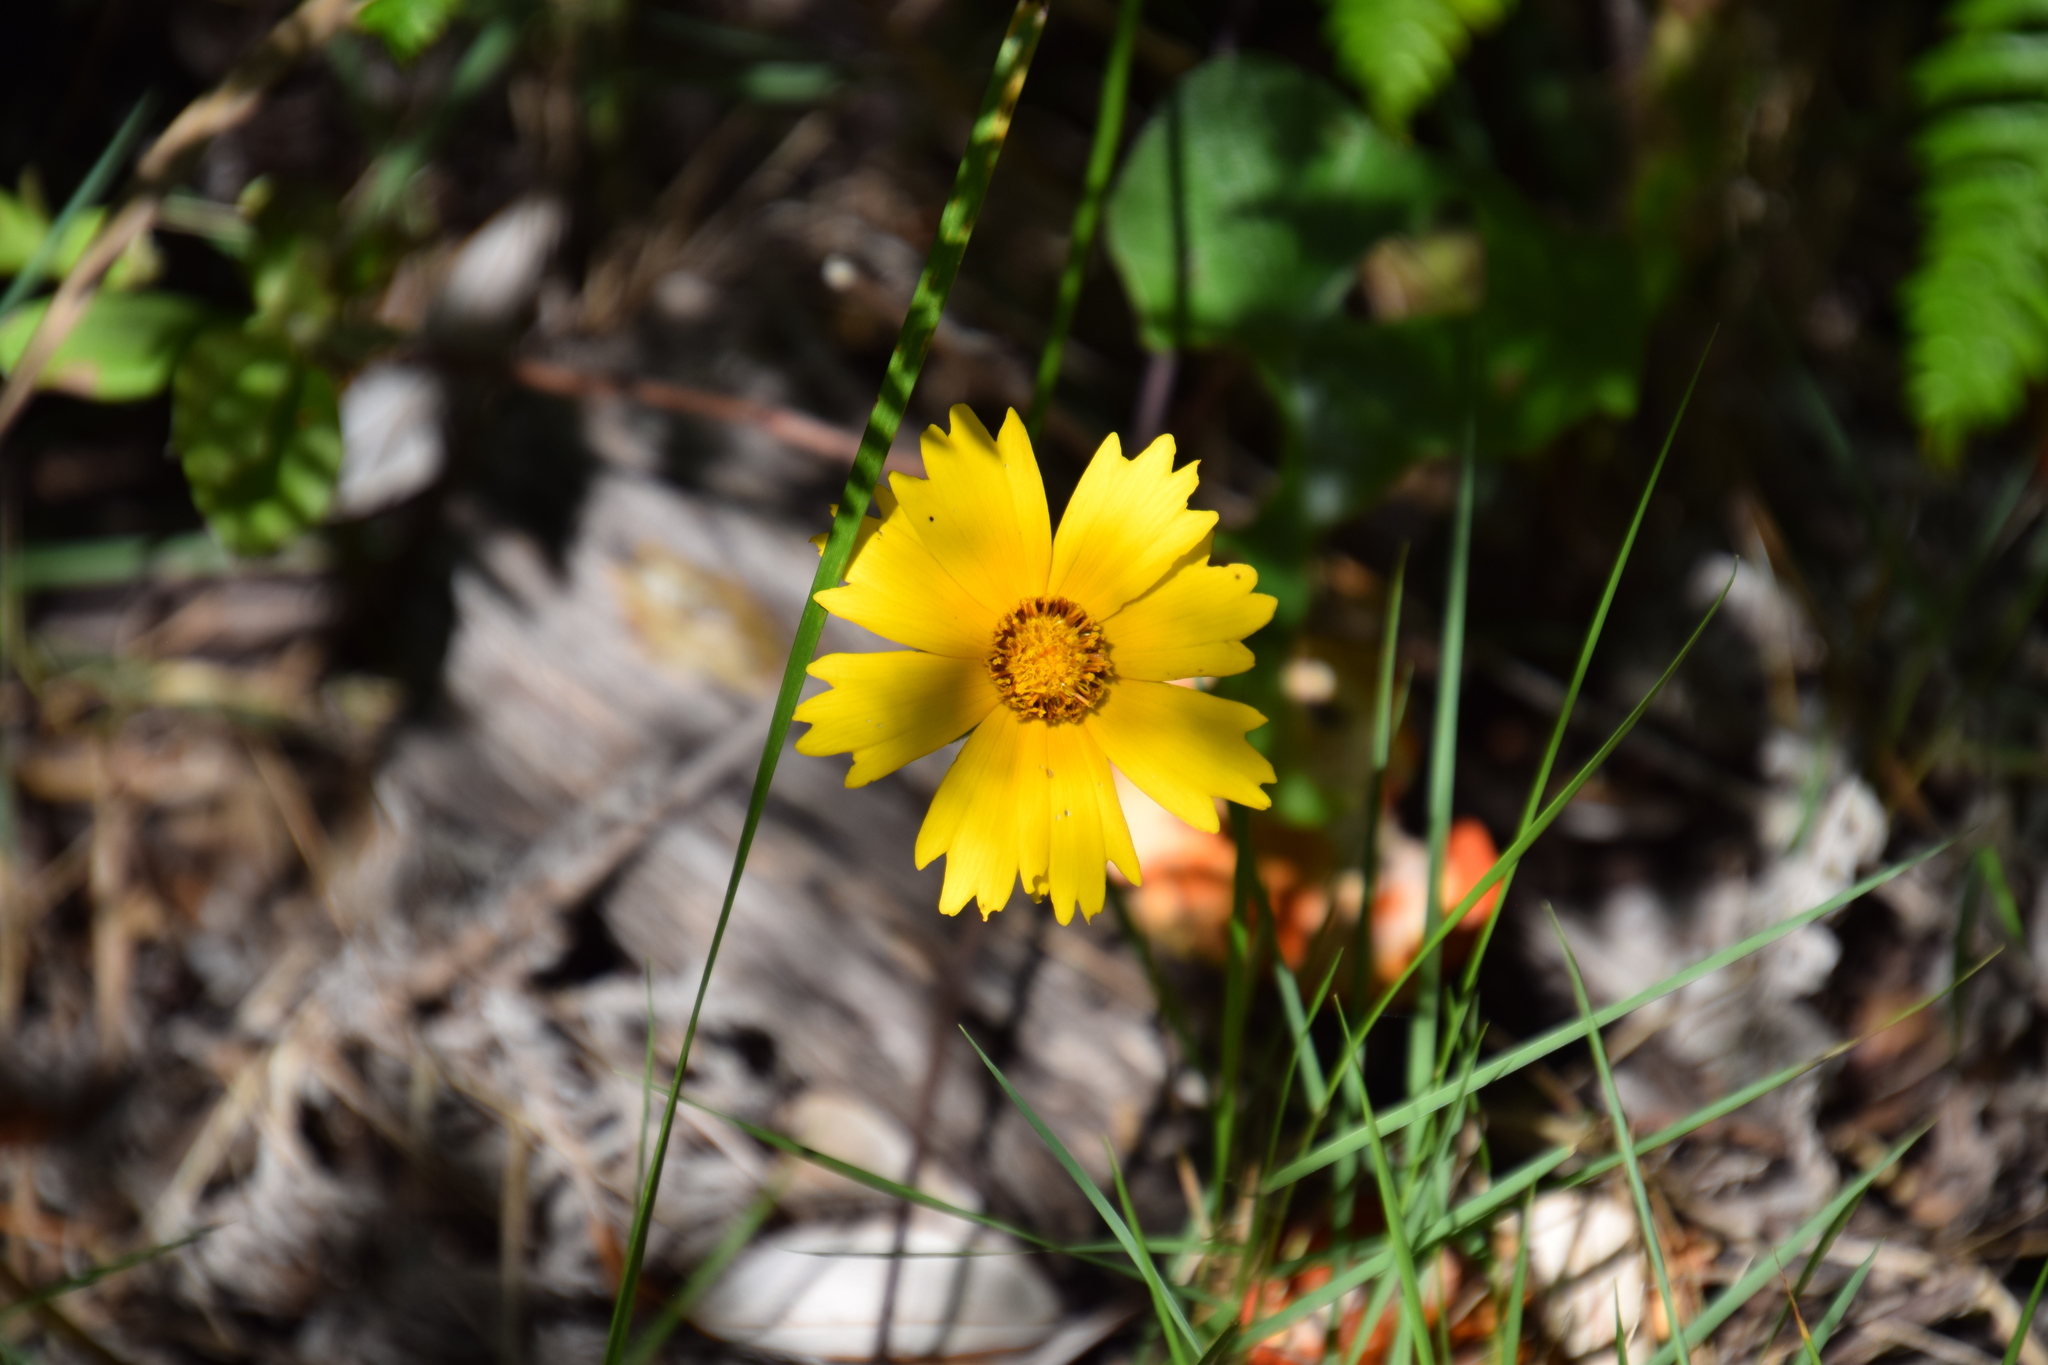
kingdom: Plantae
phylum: Tracheophyta
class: Magnoliopsida
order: Asterales
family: Asteraceae
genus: Coreopsis
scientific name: Coreopsis lanceolata
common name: Garden coreopsis
